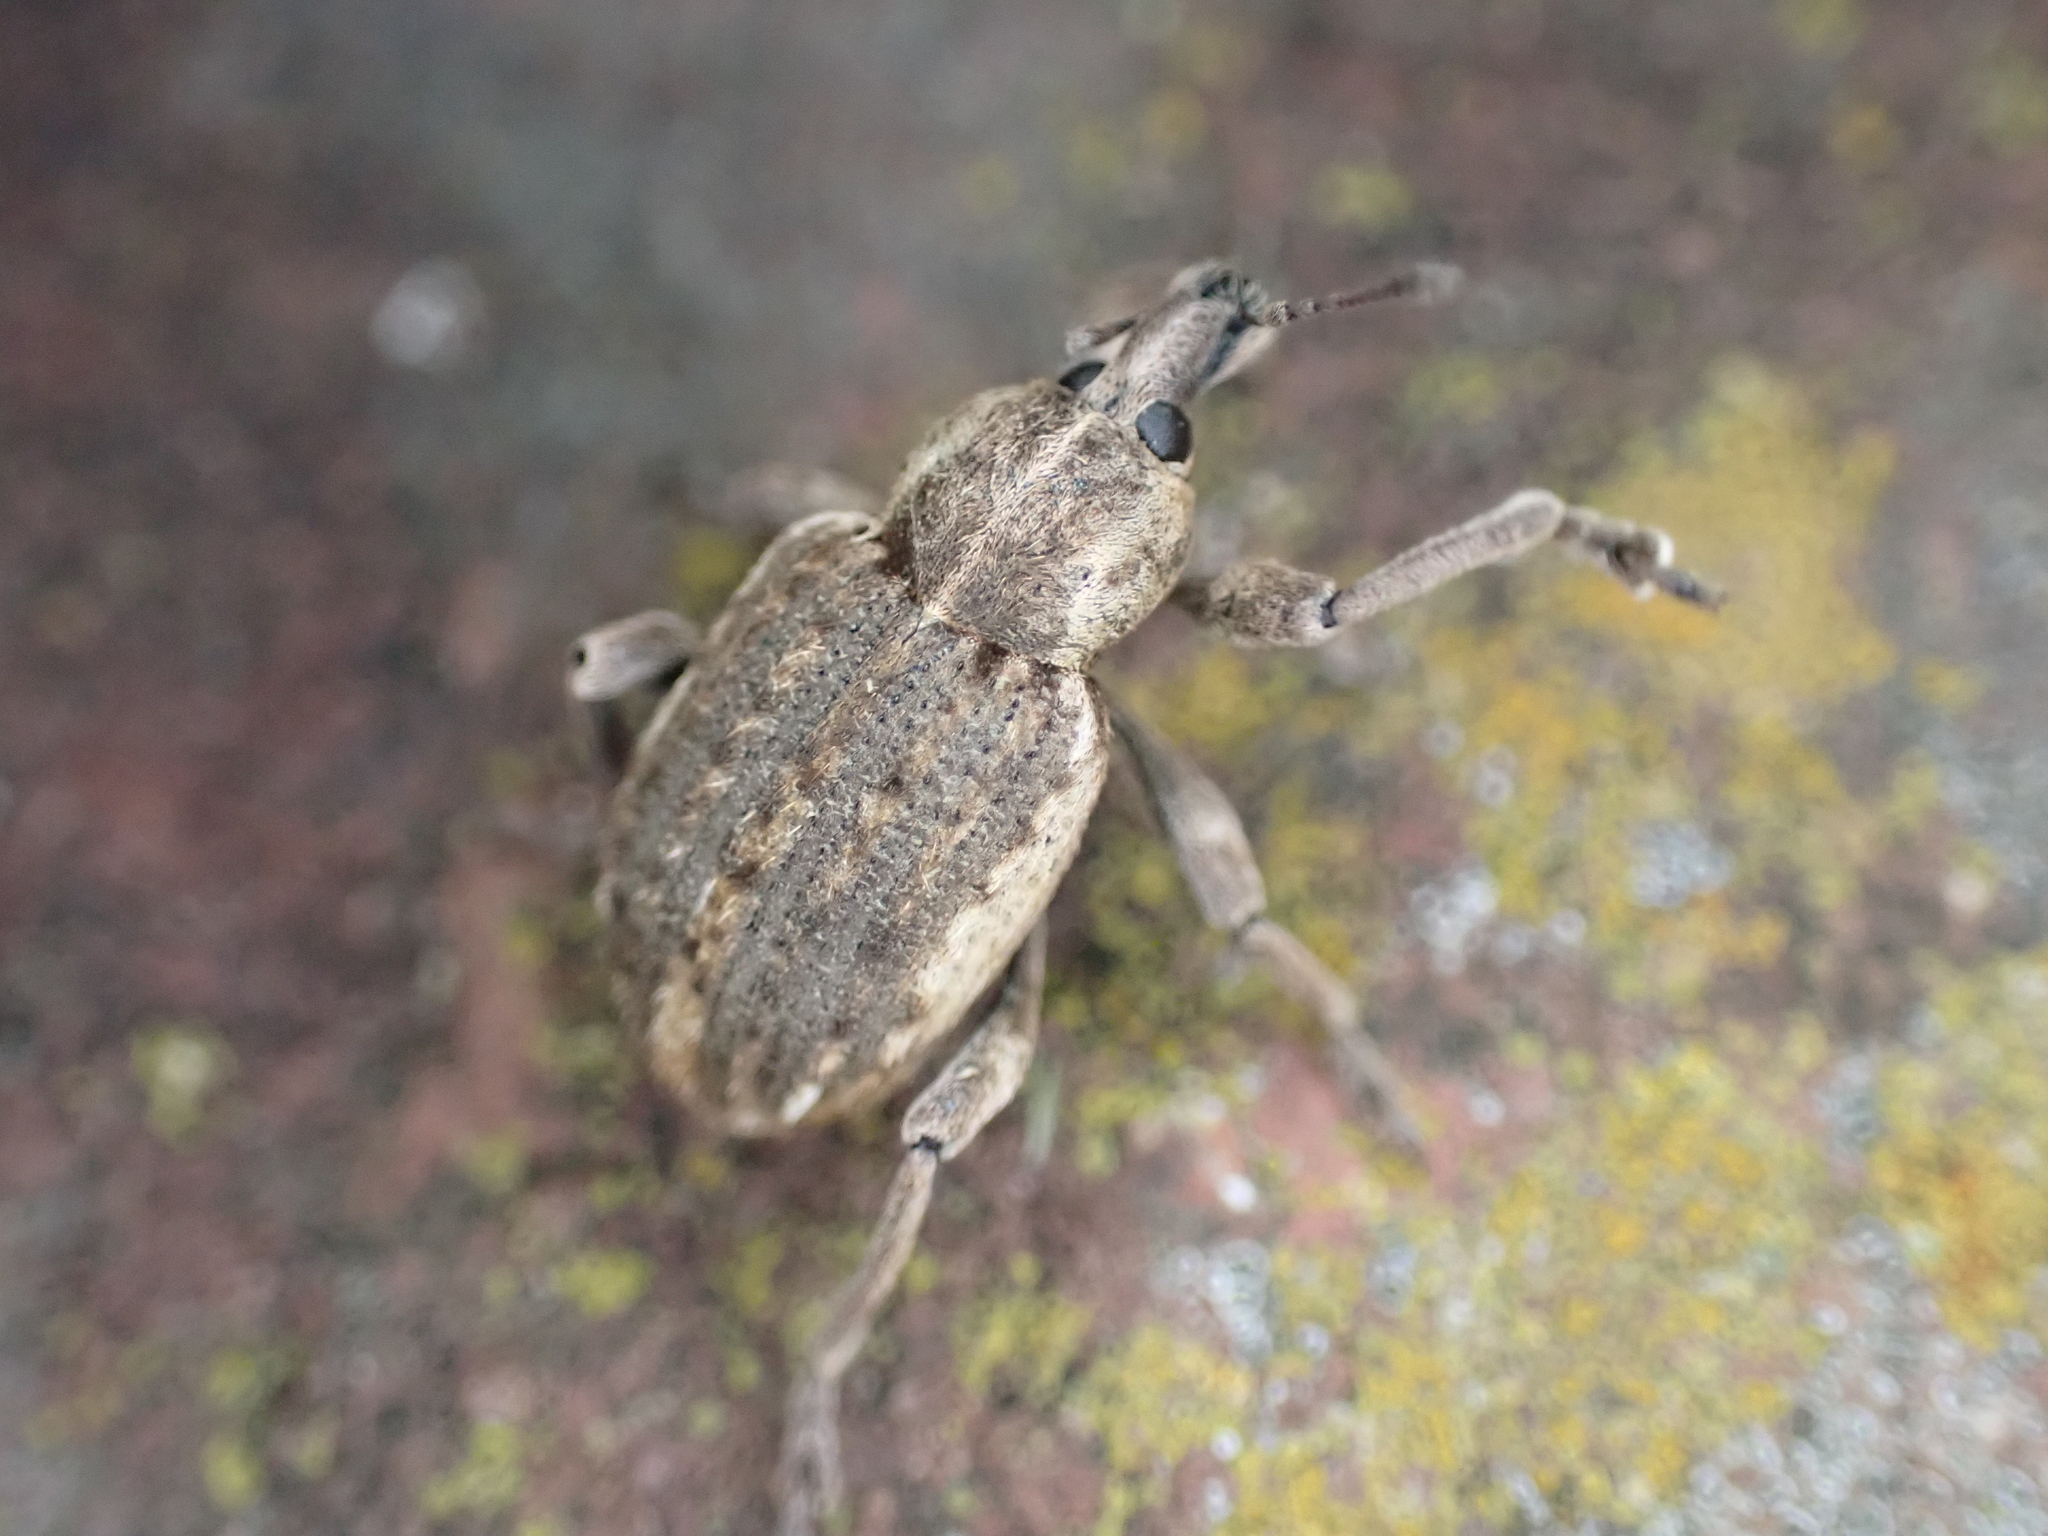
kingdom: Animalia
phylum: Arthropoda
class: Insecta
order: Coleoptera
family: Curculionidae
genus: Brachypera
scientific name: Brachypera zoilus
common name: Clover leaf weevil
